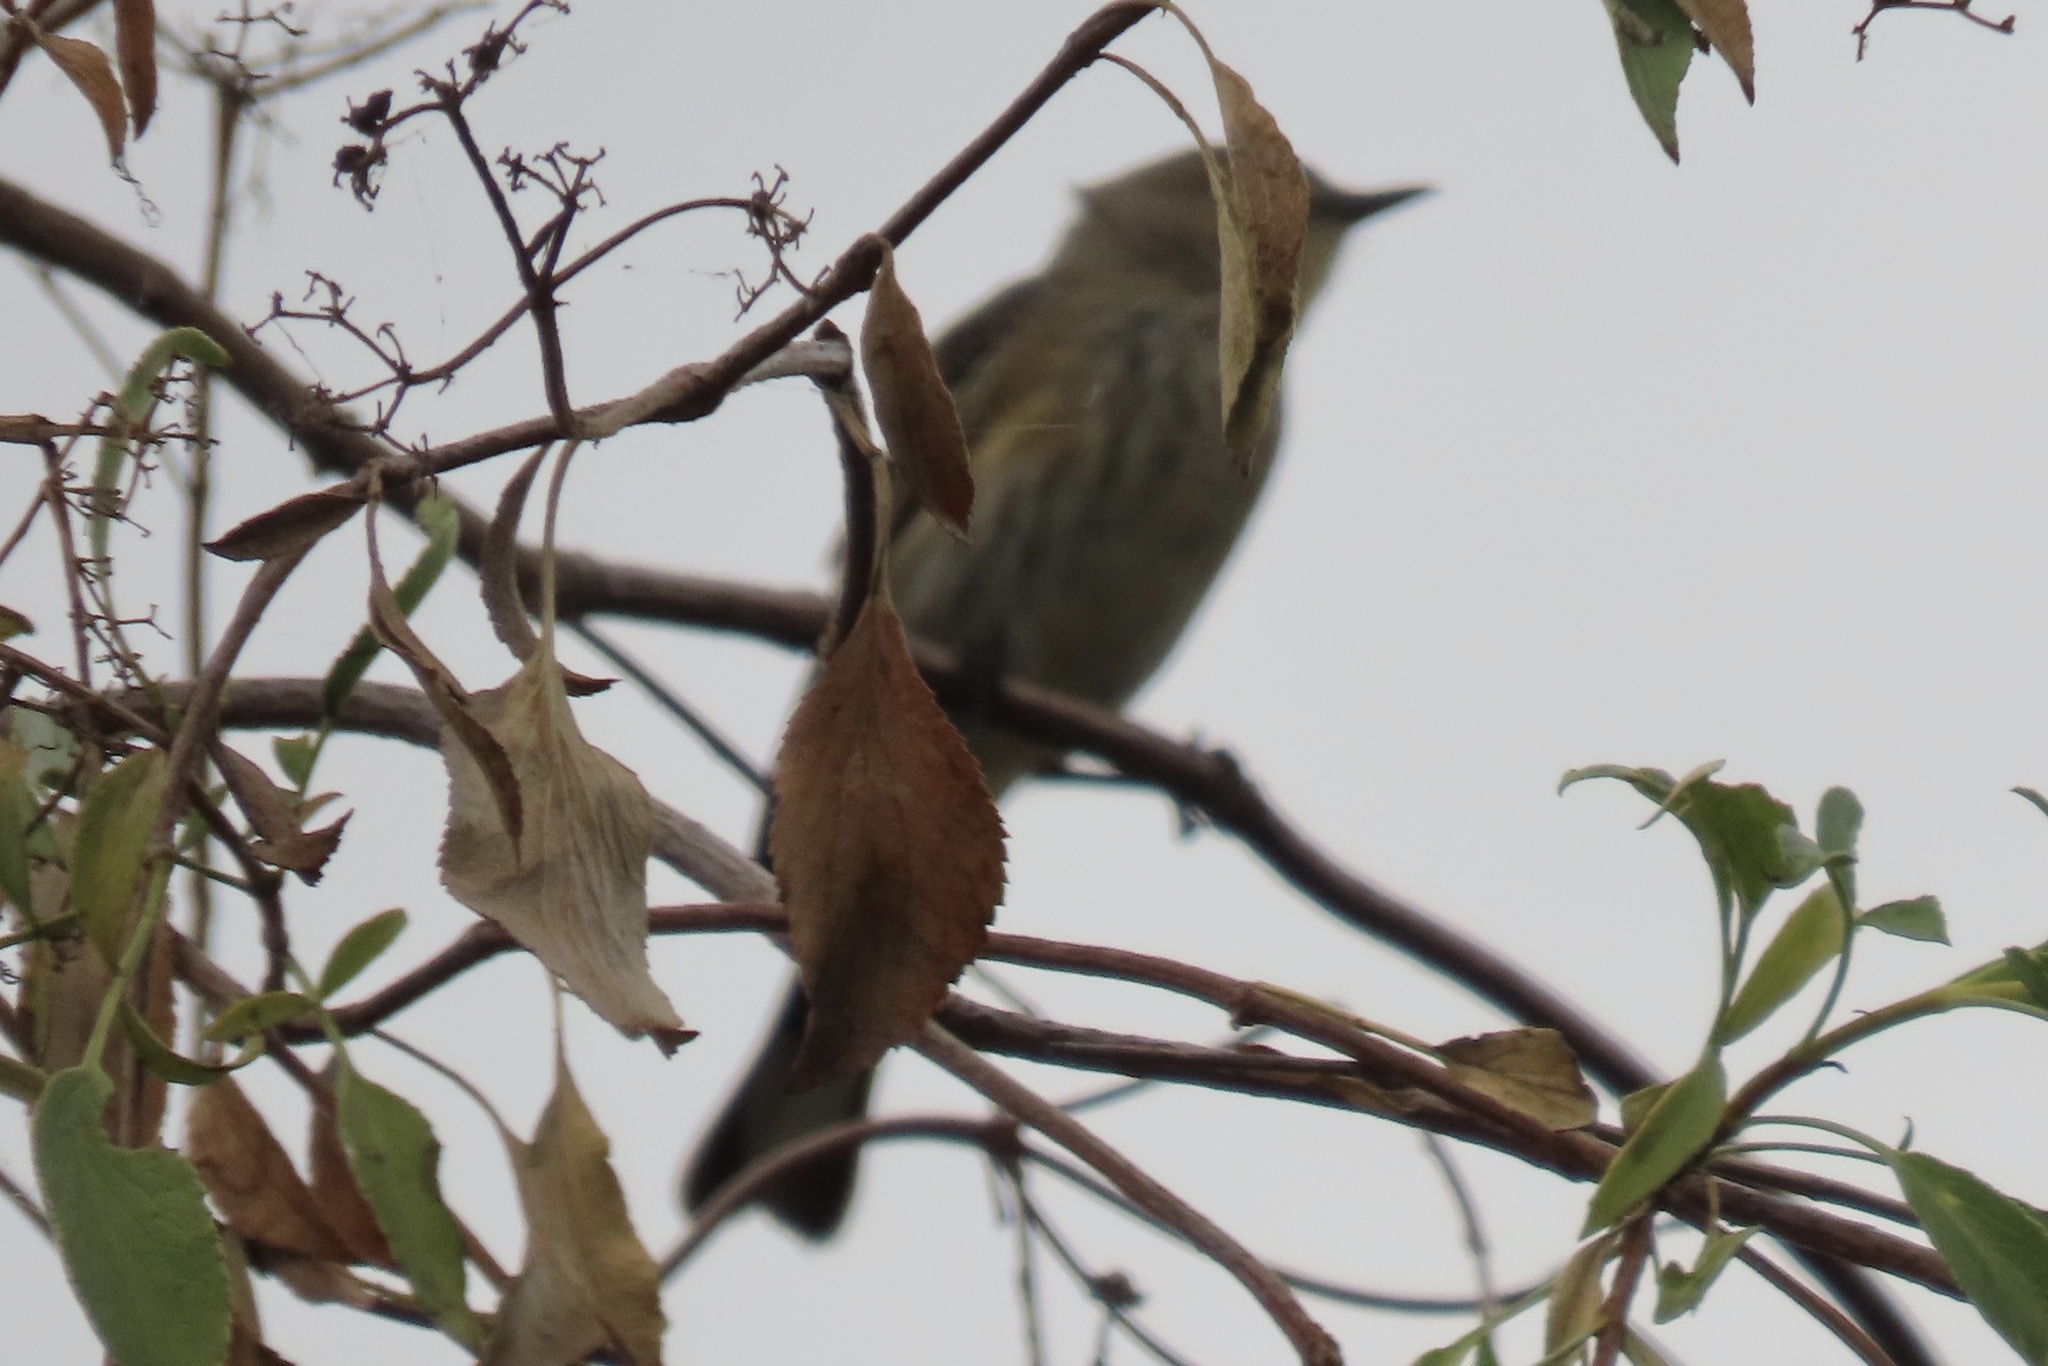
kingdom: Animalia
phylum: Chordata
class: Aves
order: Passeriformes
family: Parulidae
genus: Setophaga
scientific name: Setophaga coronata
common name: Myrtle warbler
